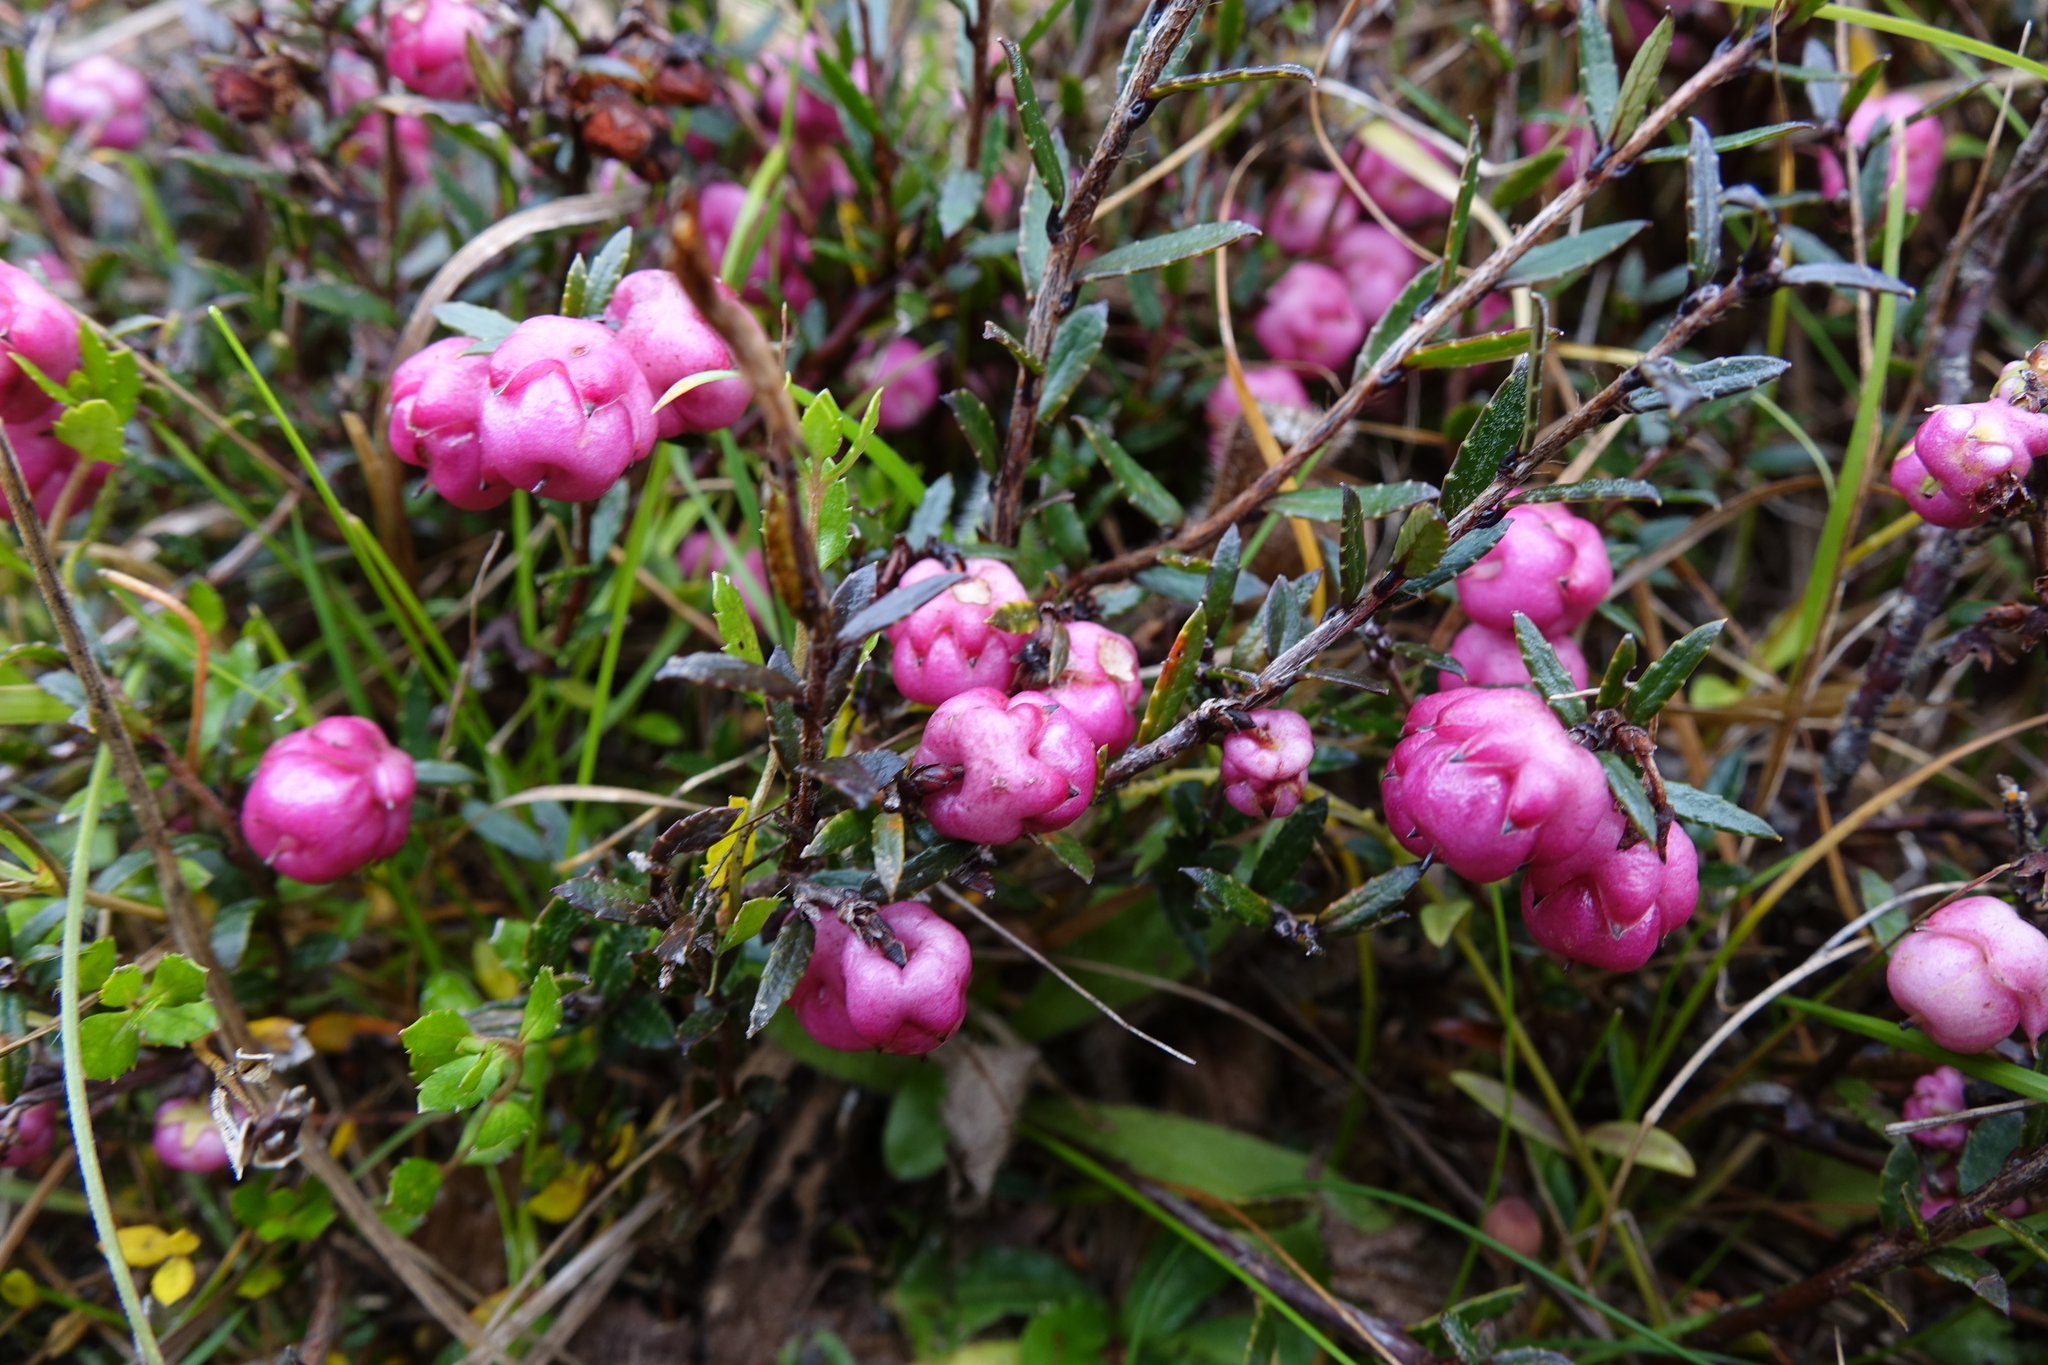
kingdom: Plantae
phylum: Tracheophyta
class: Magnoliopsida
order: Ericales
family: Ericaceae
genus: Gaultheria
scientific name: Gaultheria macrostigma
